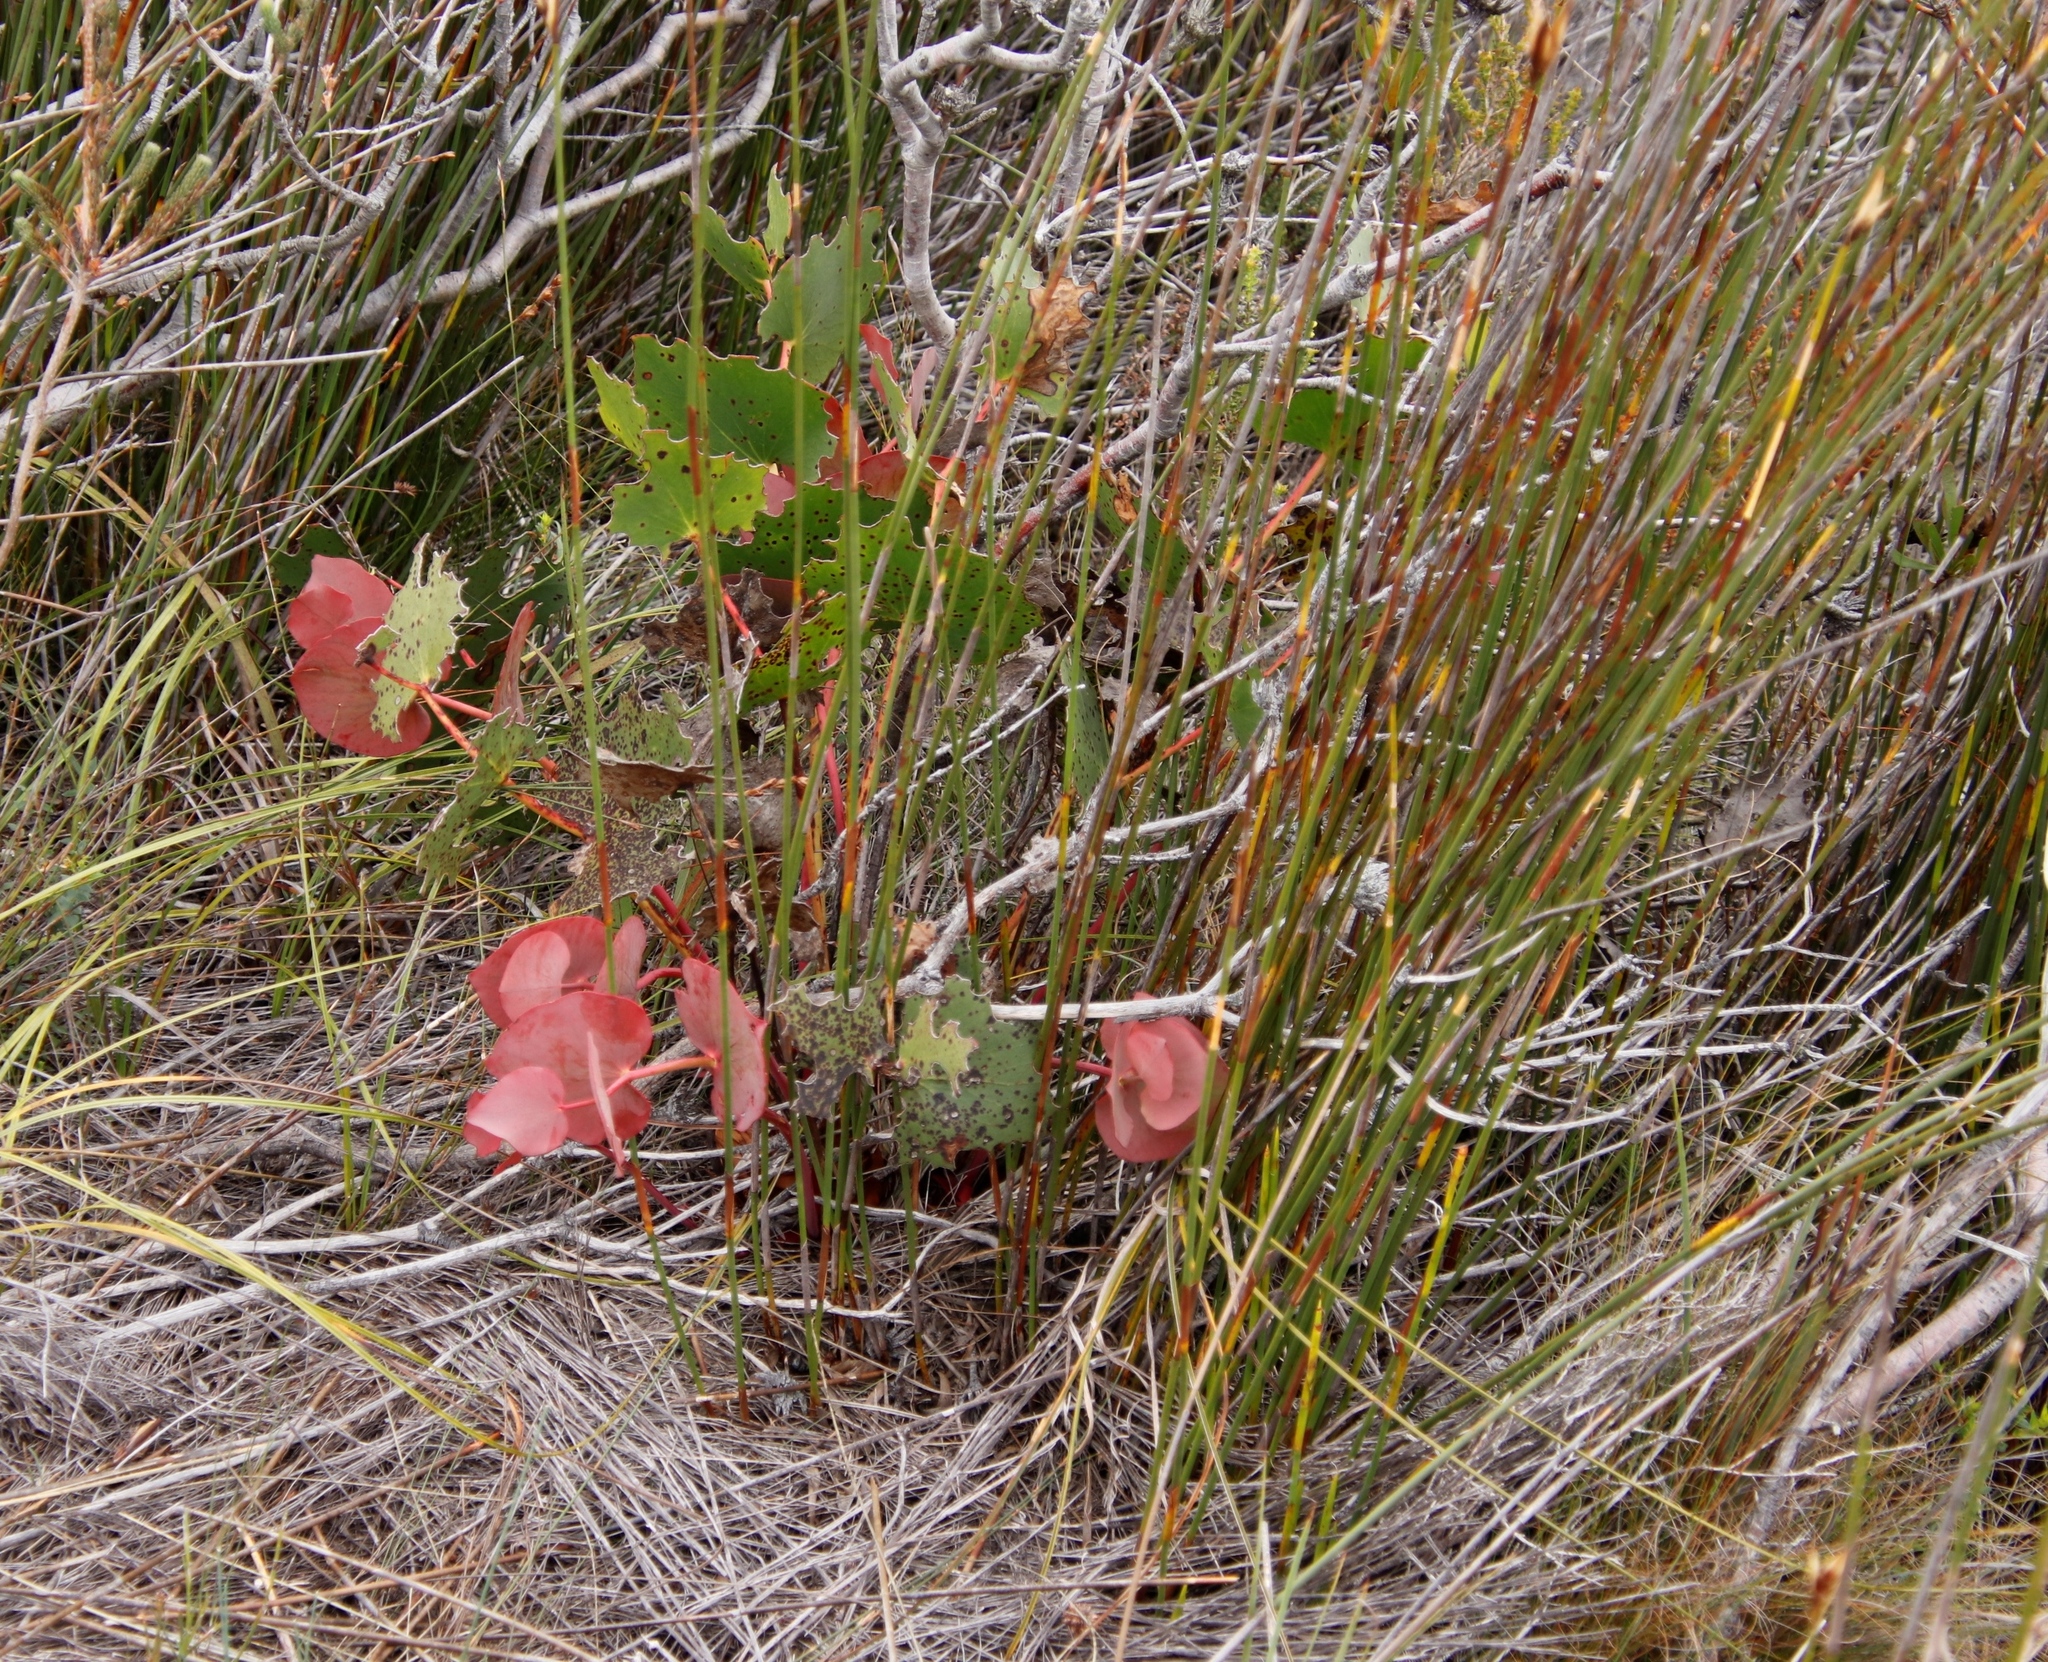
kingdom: Plantae
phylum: Tracheophyta
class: Magnoliopsida
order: Proteales
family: Proteaceae
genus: Protea
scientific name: Protea cordata
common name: Heart-leaf sugarbush
